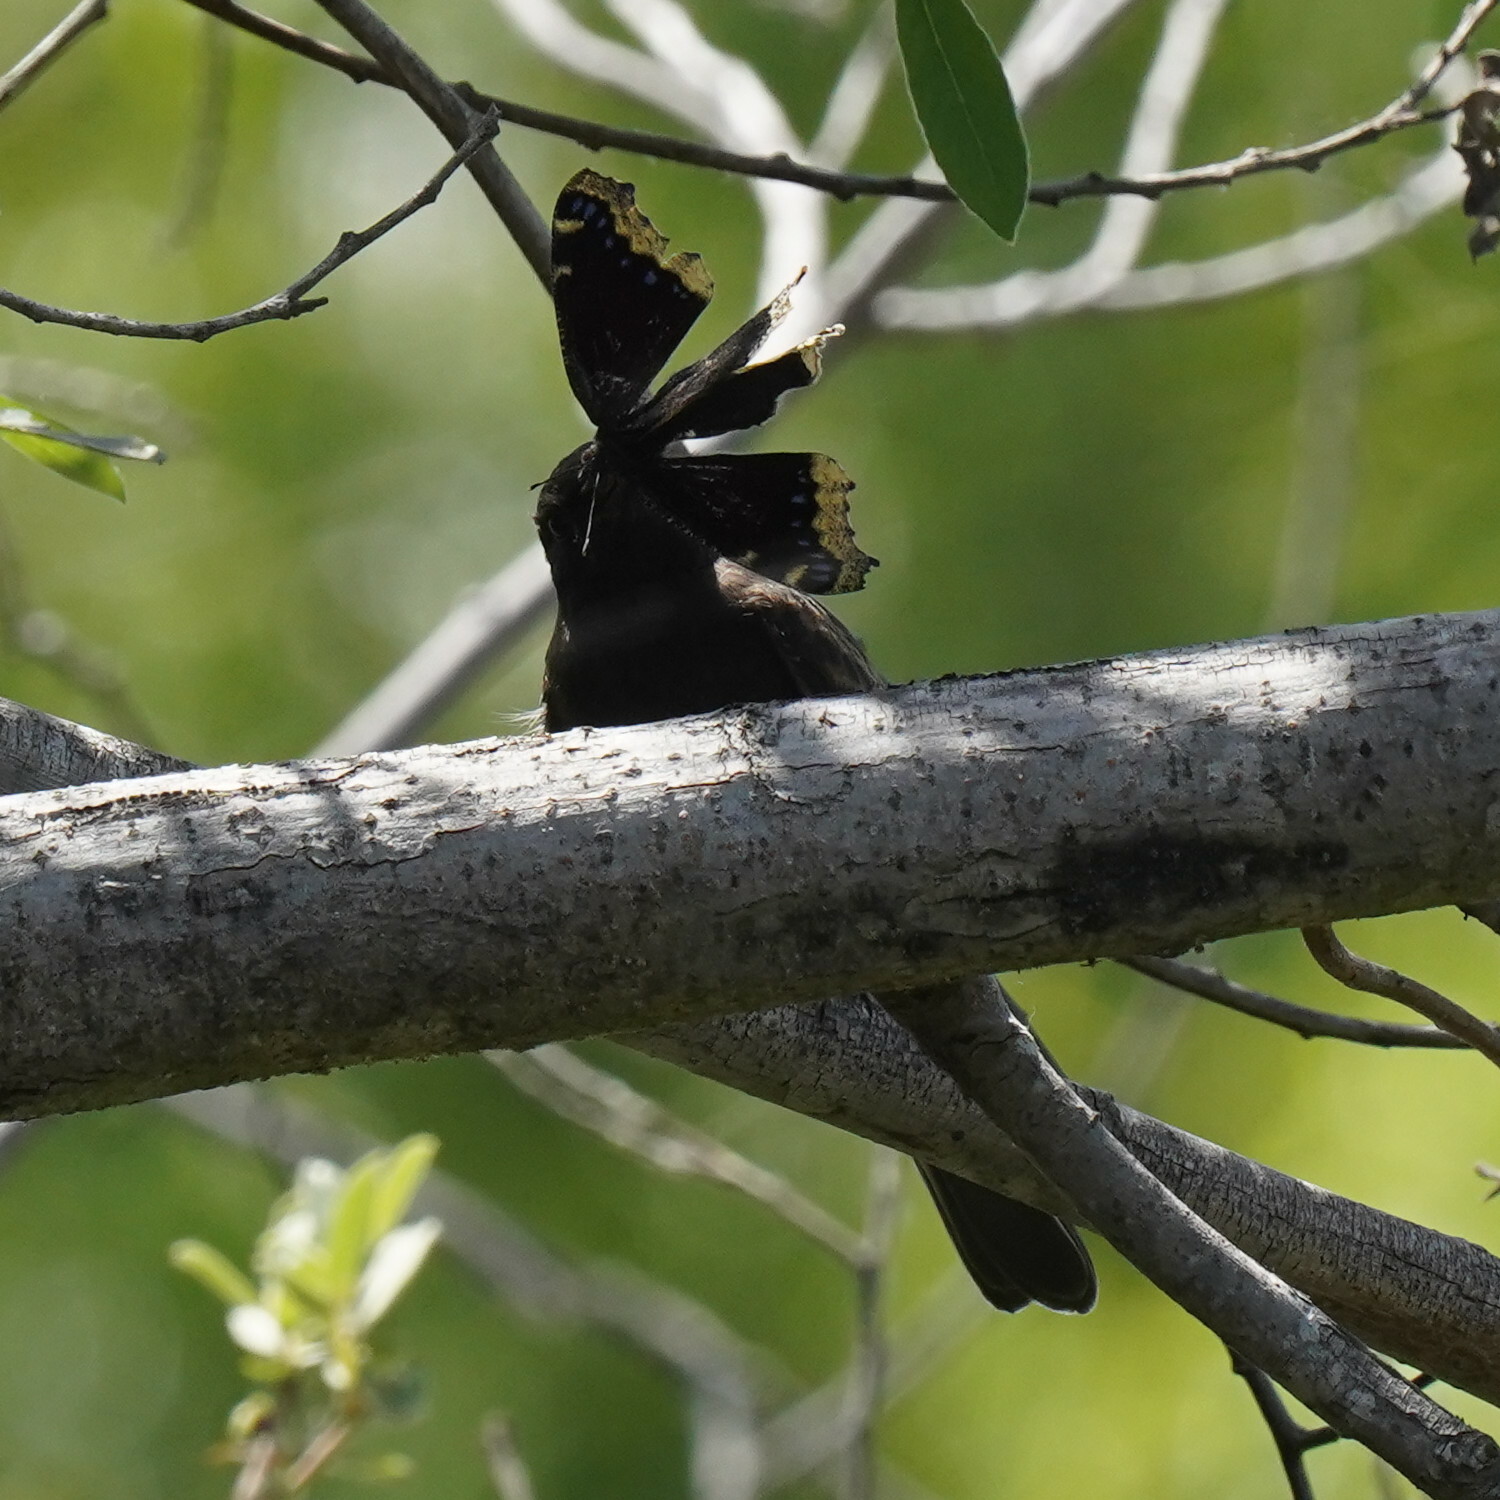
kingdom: Animalia
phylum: Chordata
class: Aves
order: Passeriformes
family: Tyrannidae
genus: Sayornis
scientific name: Sayornis nigricans
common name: Black phoebe
